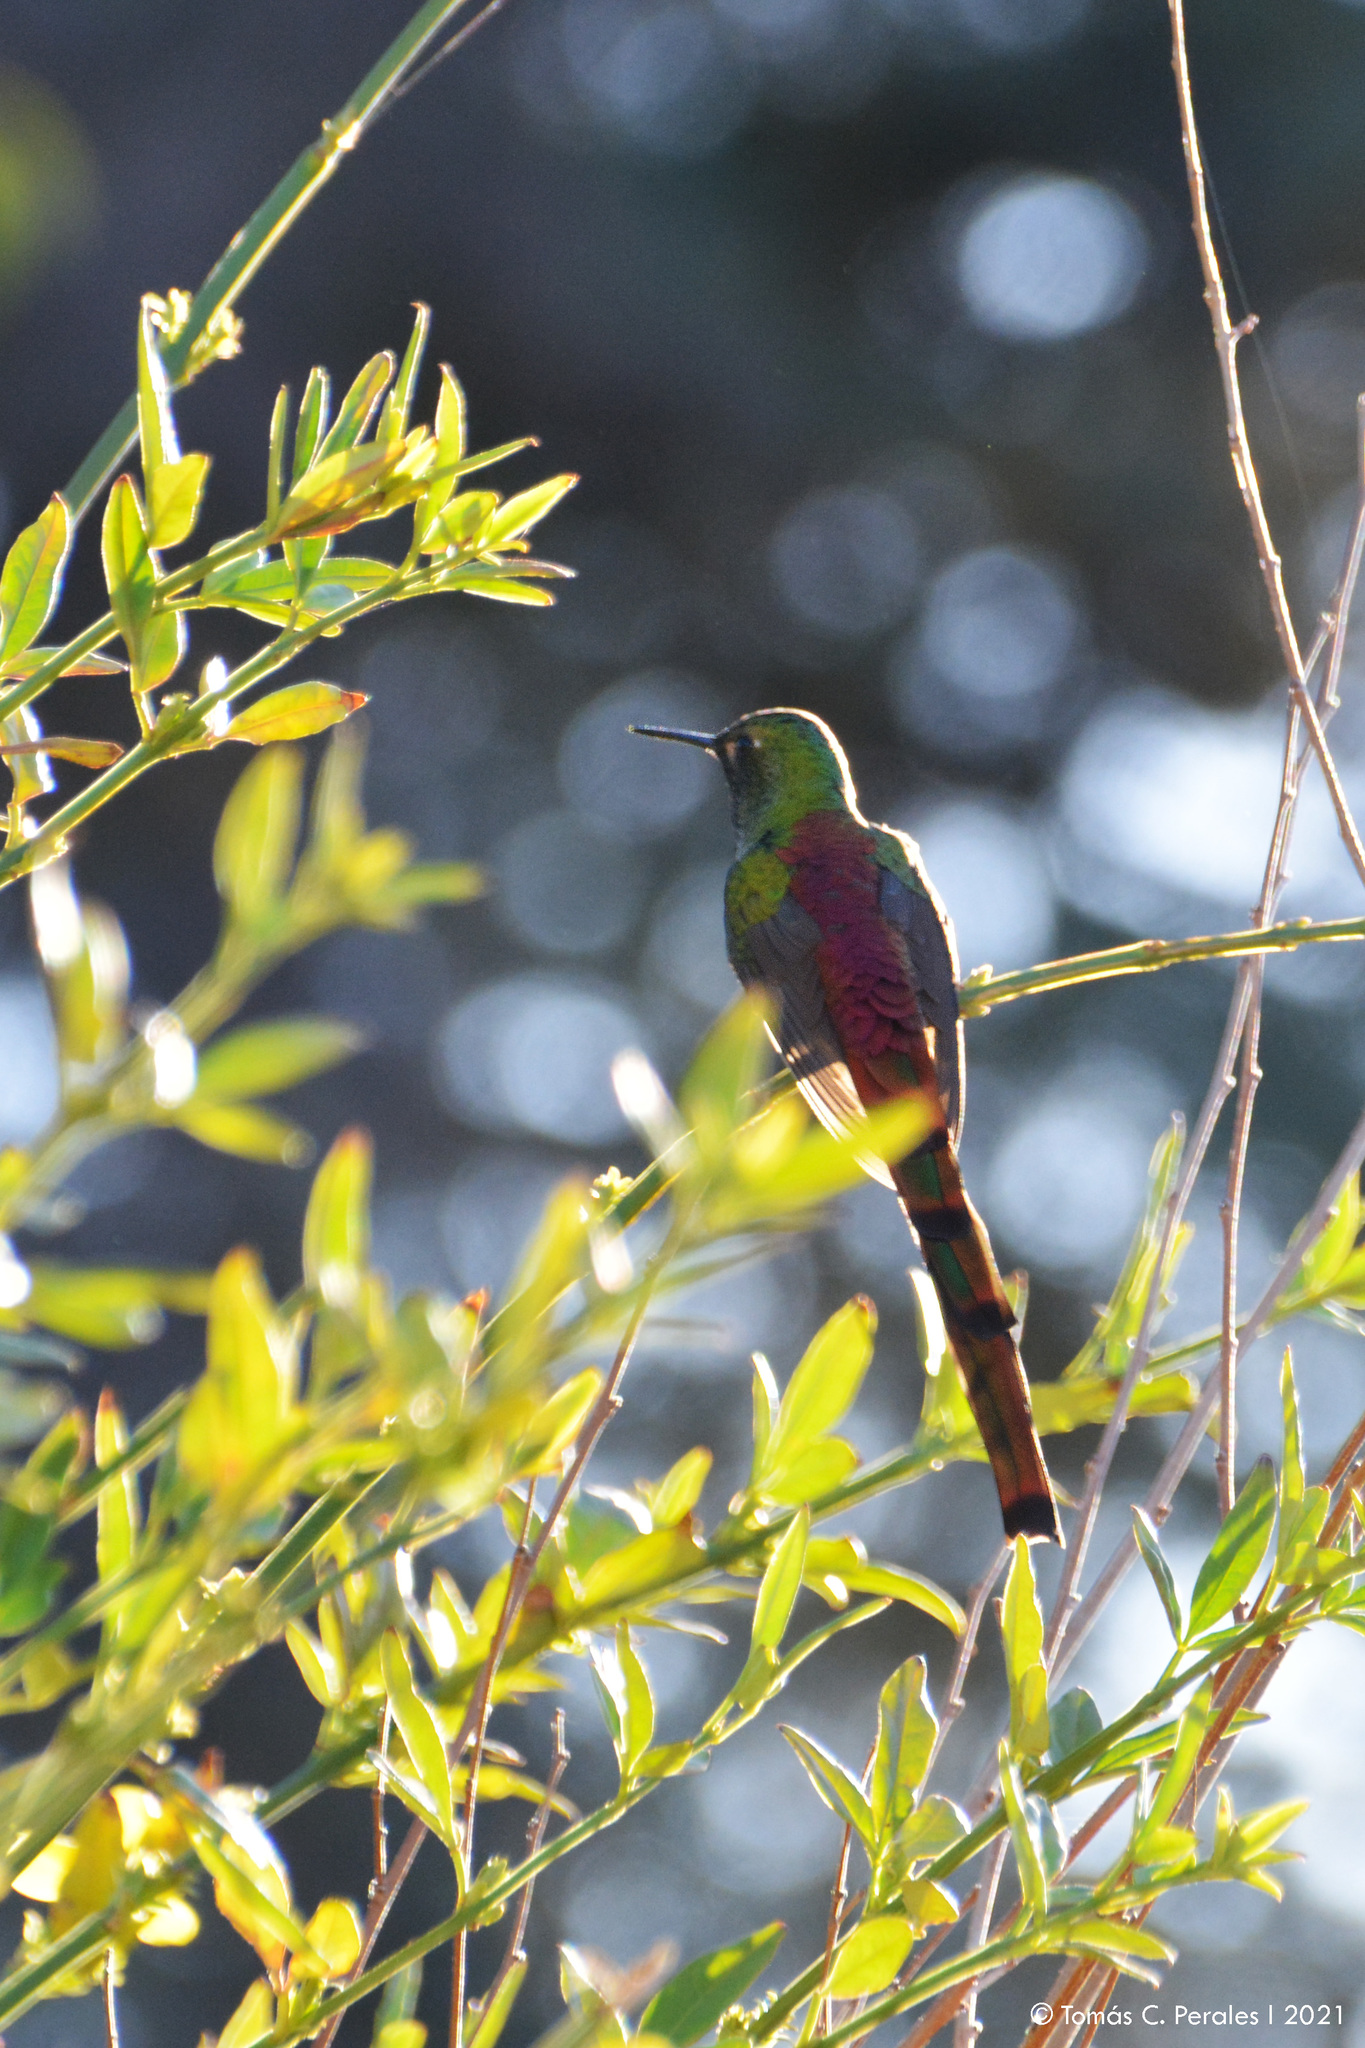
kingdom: Animalia
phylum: Chordata
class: Aves
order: Apodiformes
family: Trochilidae
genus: Sappho
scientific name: Sappho sparganurus
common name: Red-tailed comet
